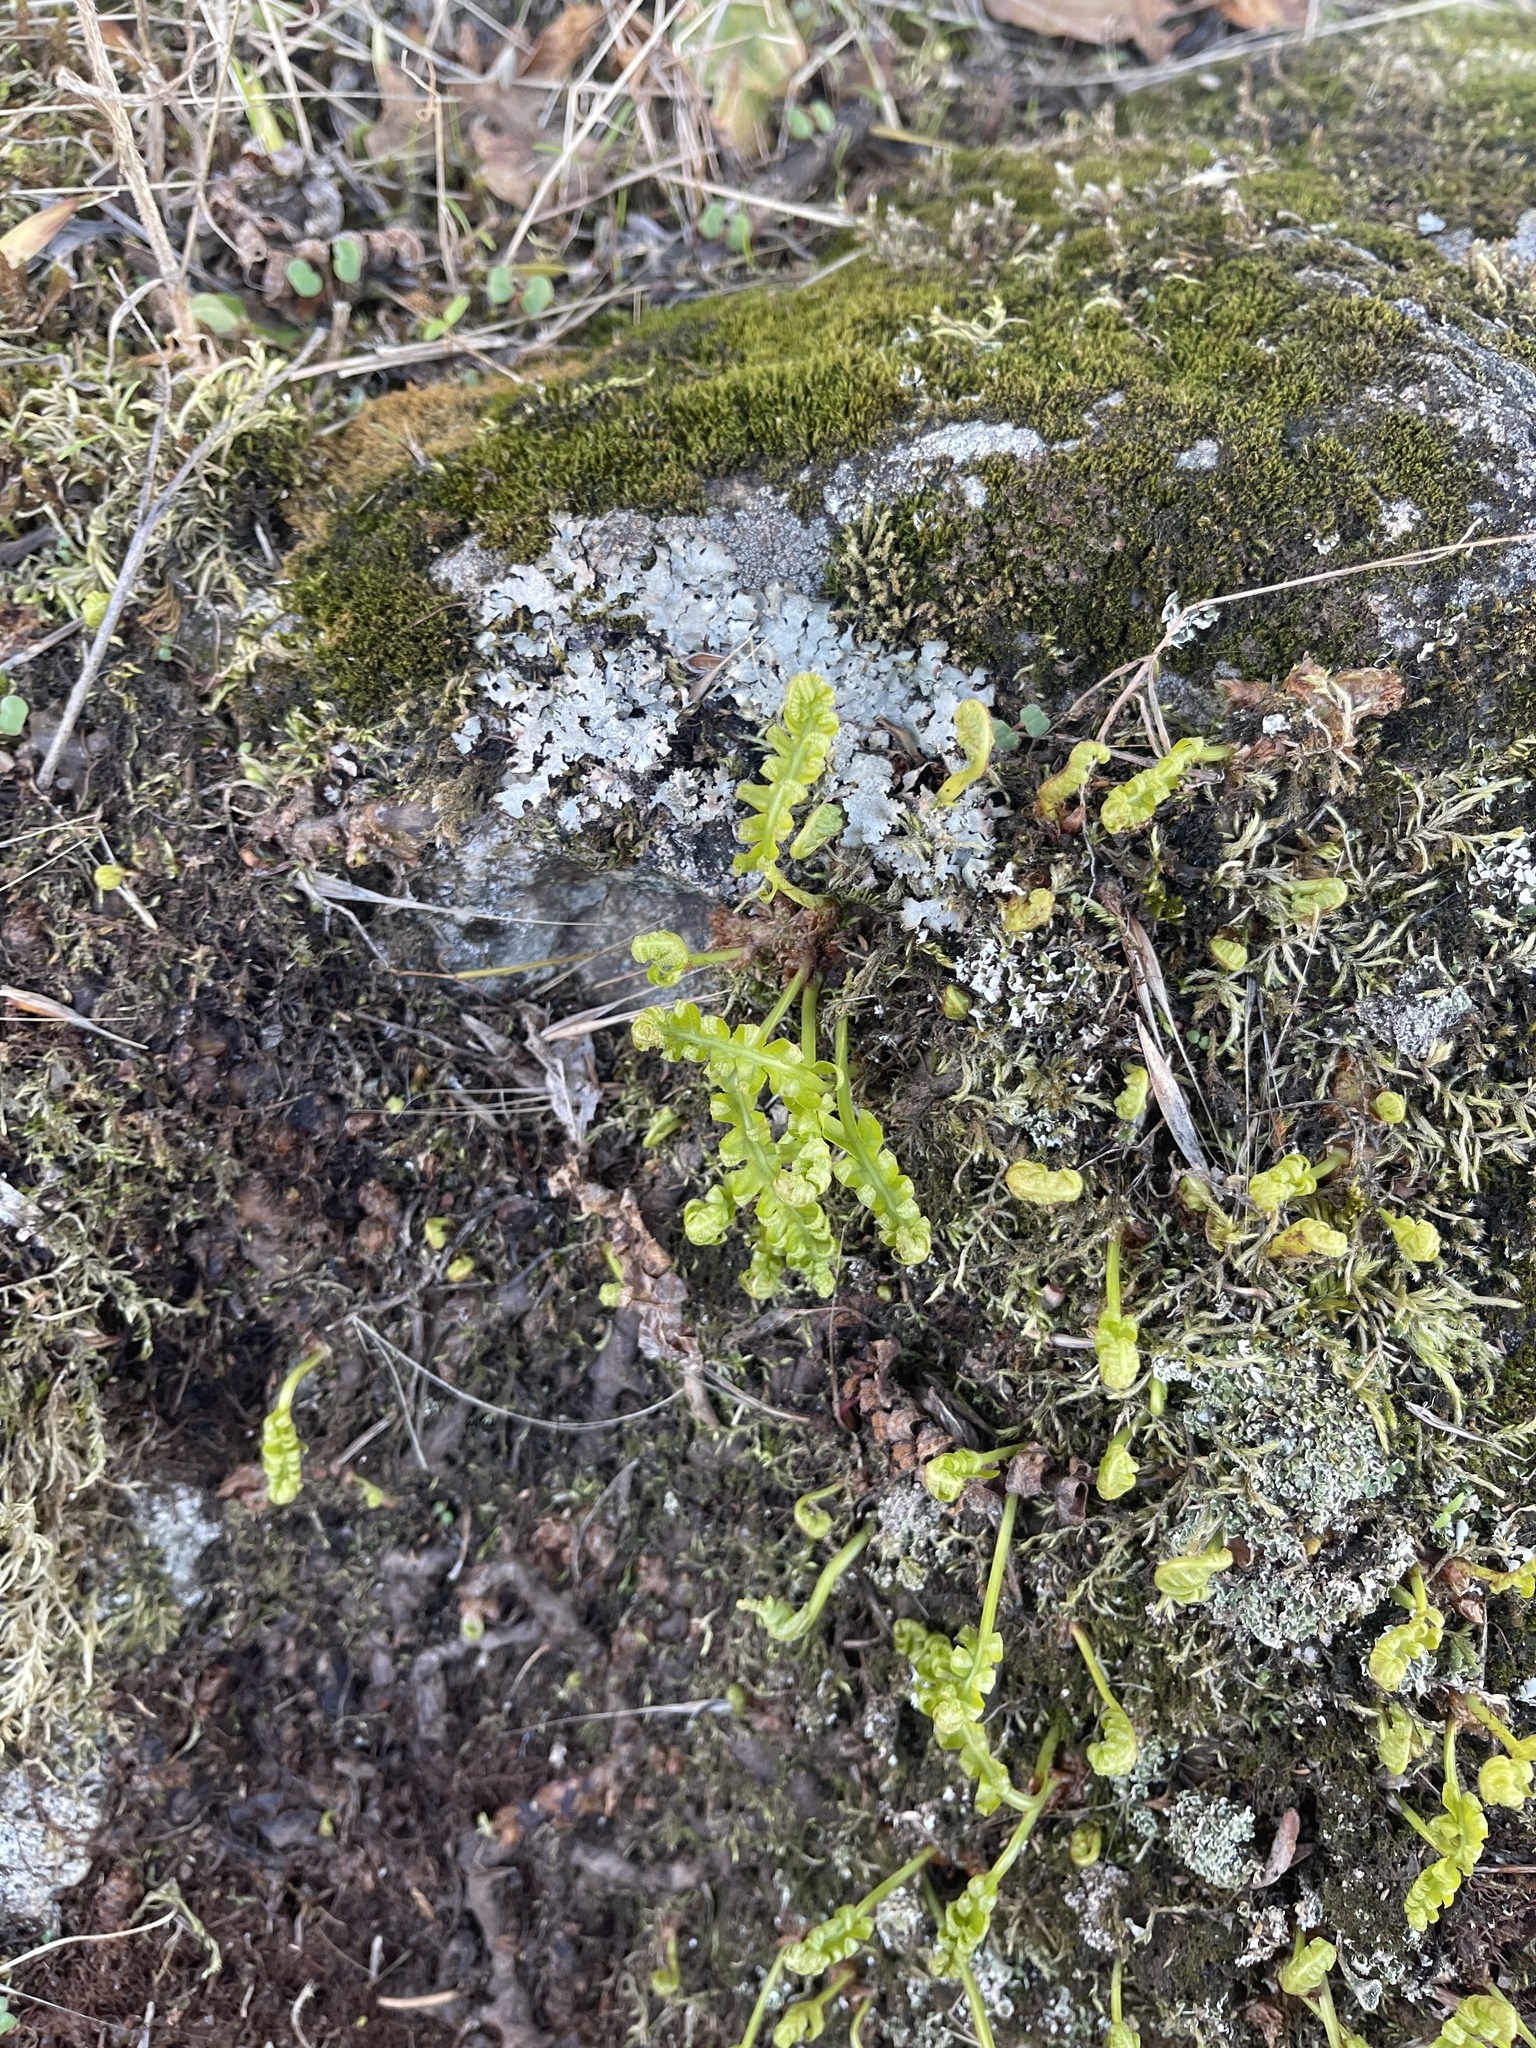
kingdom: Plantae
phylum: Tracheophyta
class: Polypodiopsida
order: Polypodiales
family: Polypodiaceae
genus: Polypodium
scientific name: Polypodium glycyrrhiza
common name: Licorice fern
